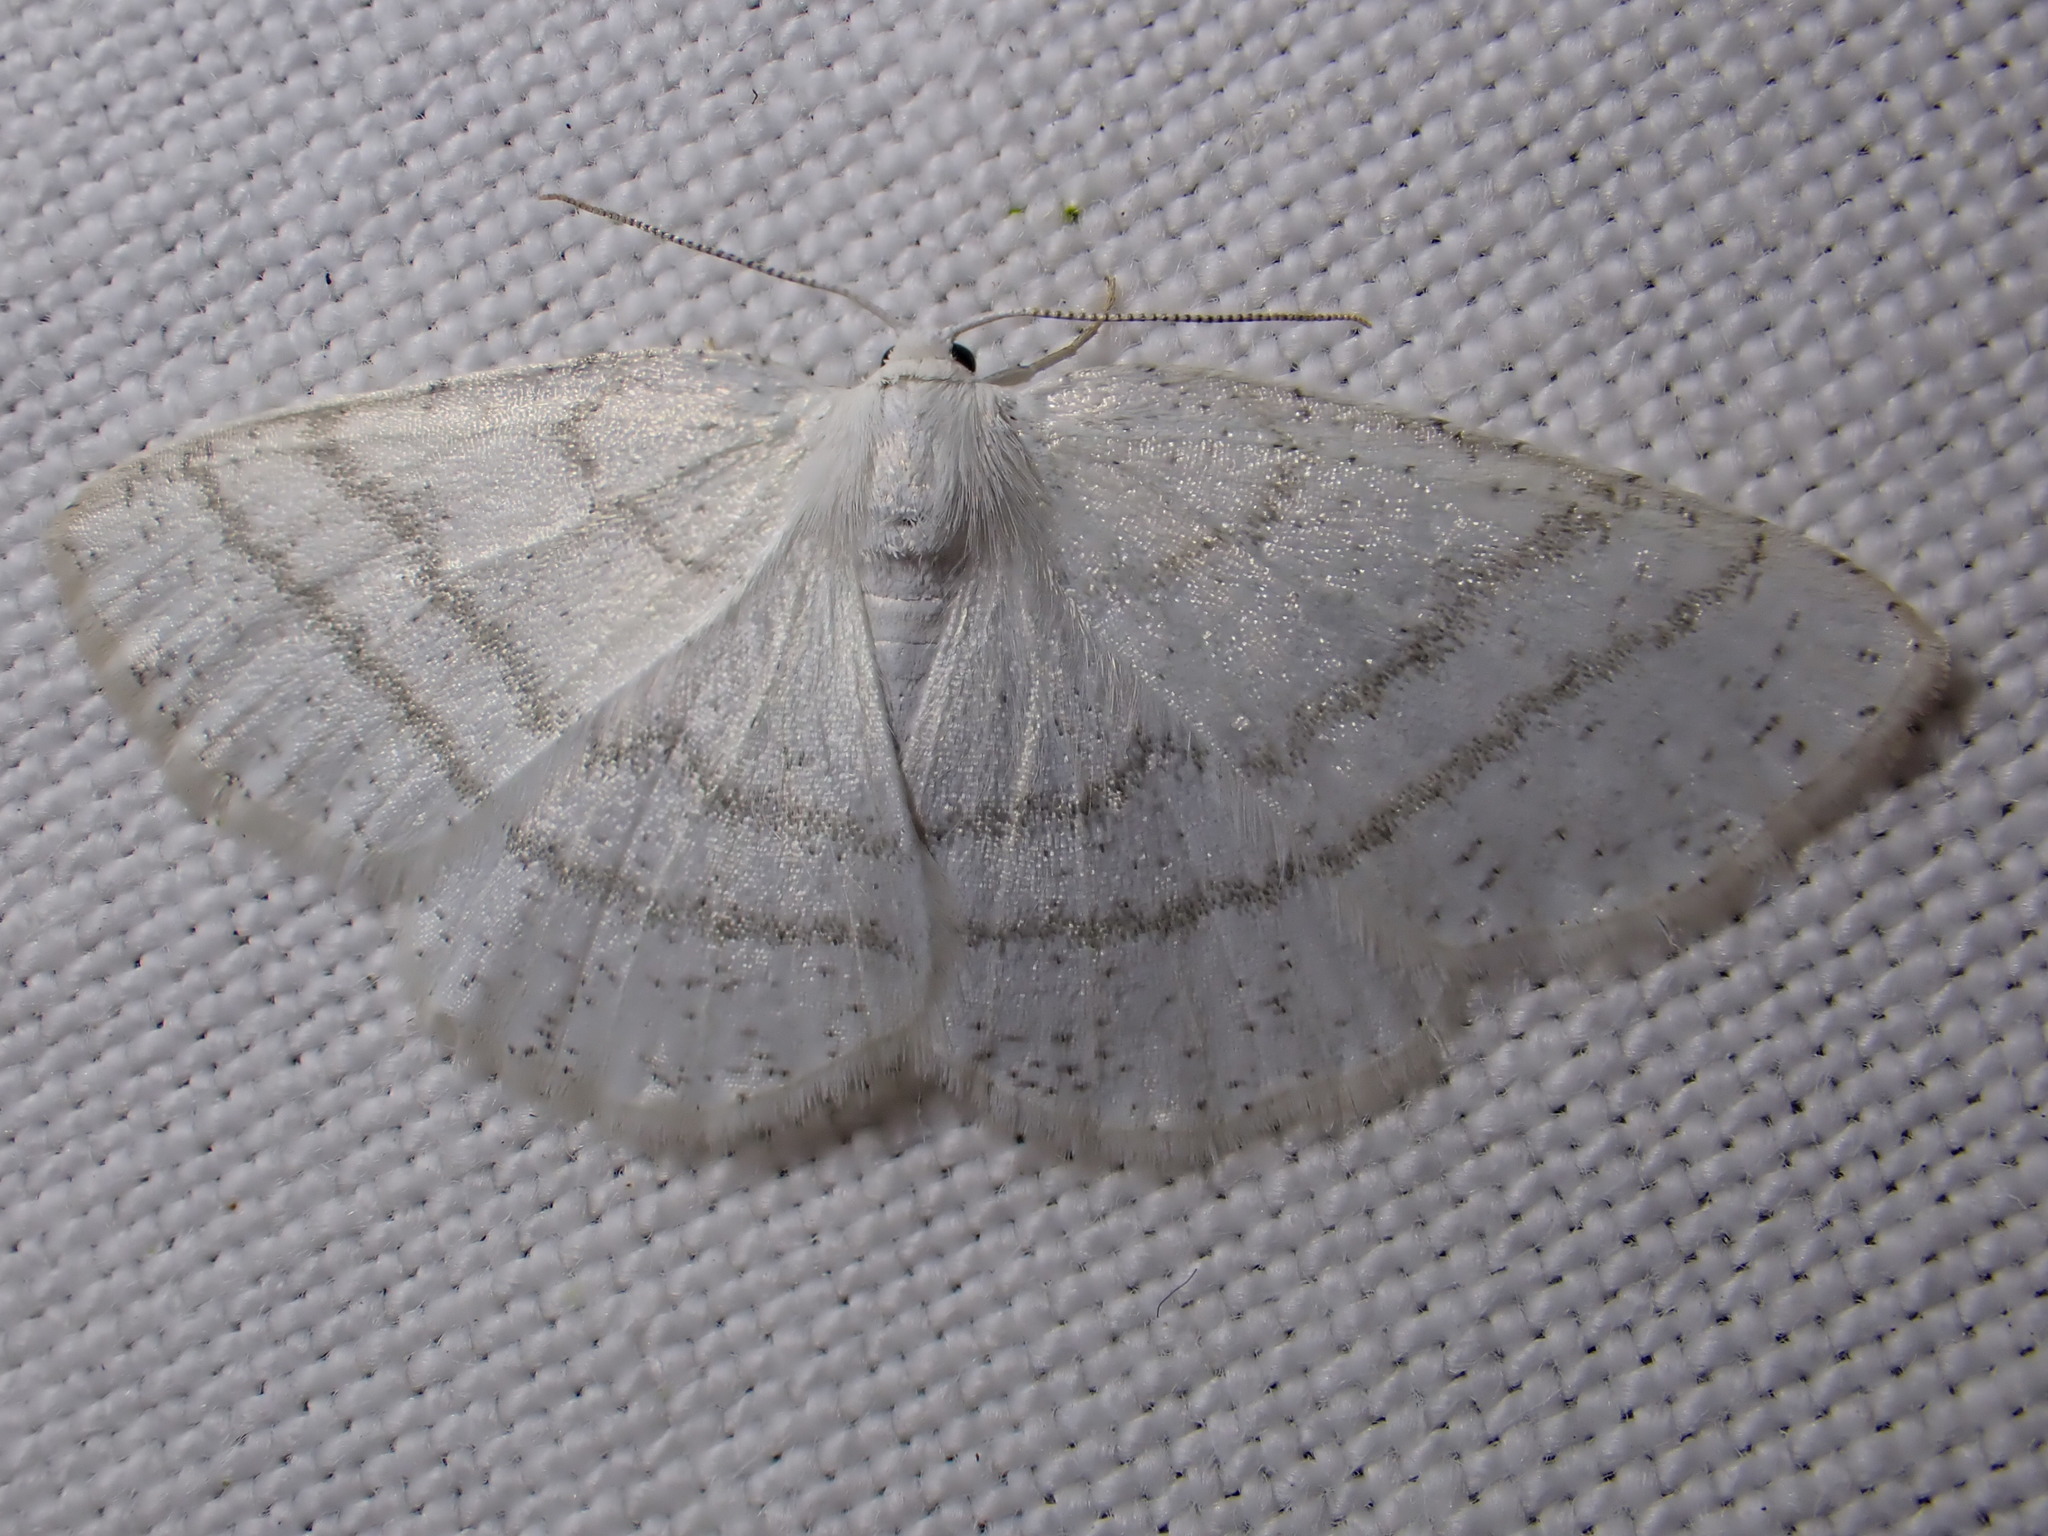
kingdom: Animalia
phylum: Arthropoda
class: Insecta
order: Lepidoptera
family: Geometridae
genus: Cabera
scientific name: Cabera pusaria
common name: Common white wave
